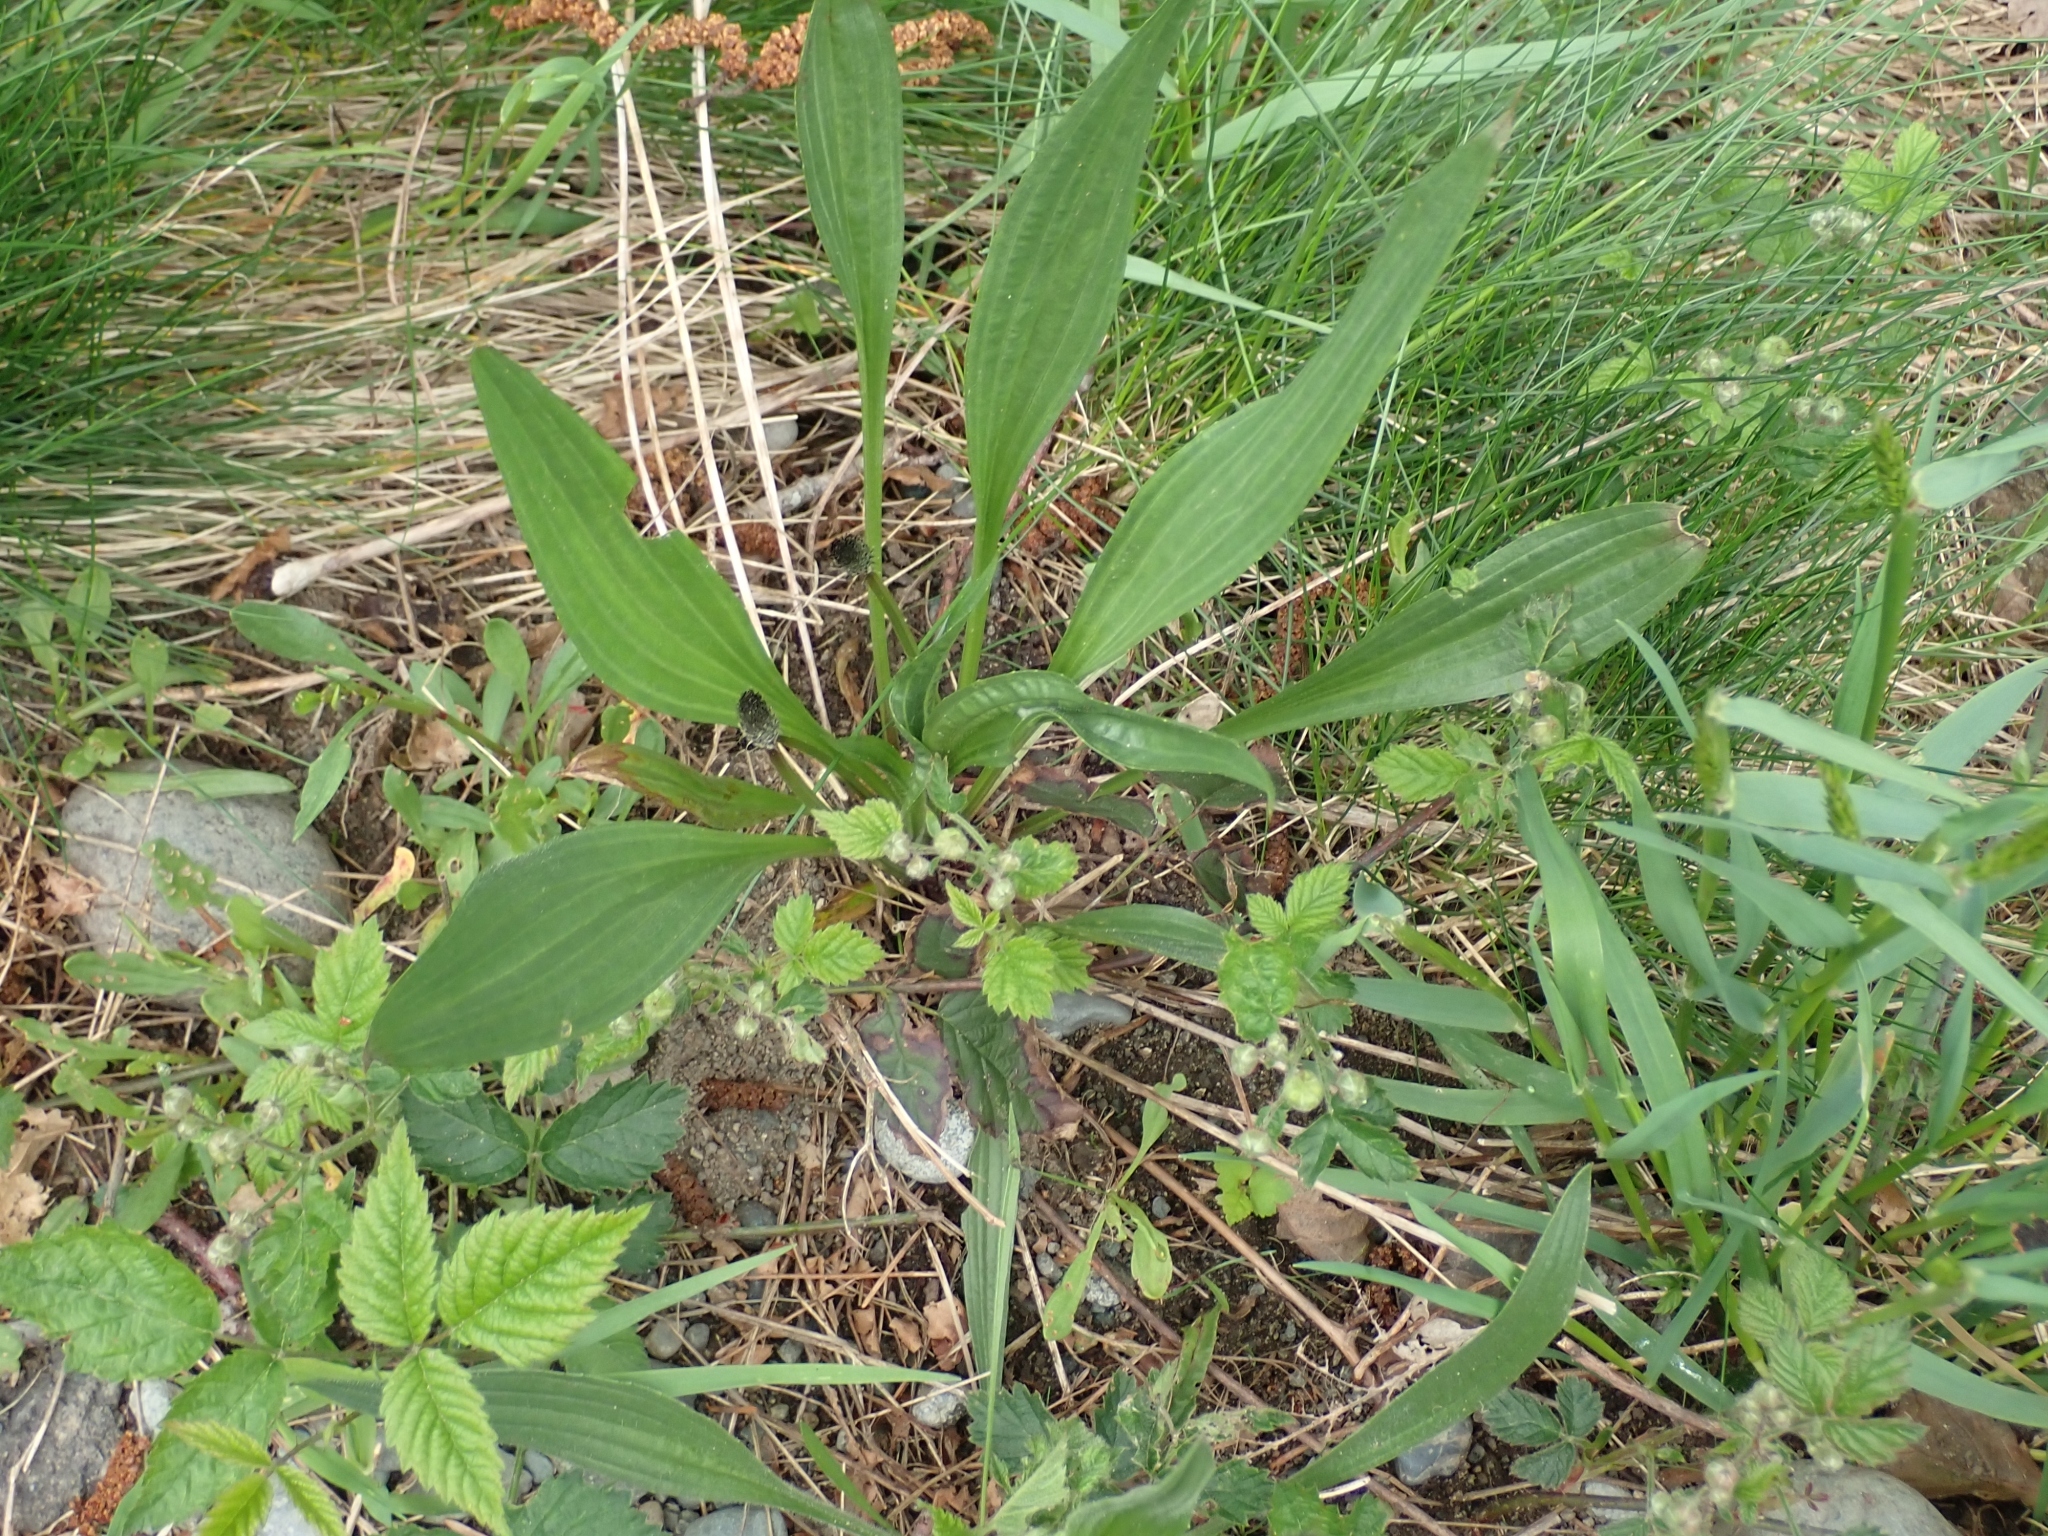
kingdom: Plantae
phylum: Tracheophyta
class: Magnoliopsida
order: Lamiales
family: Plantaginaceae
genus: Plantago
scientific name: Plantago lanceolata
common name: Ribwort plantain
